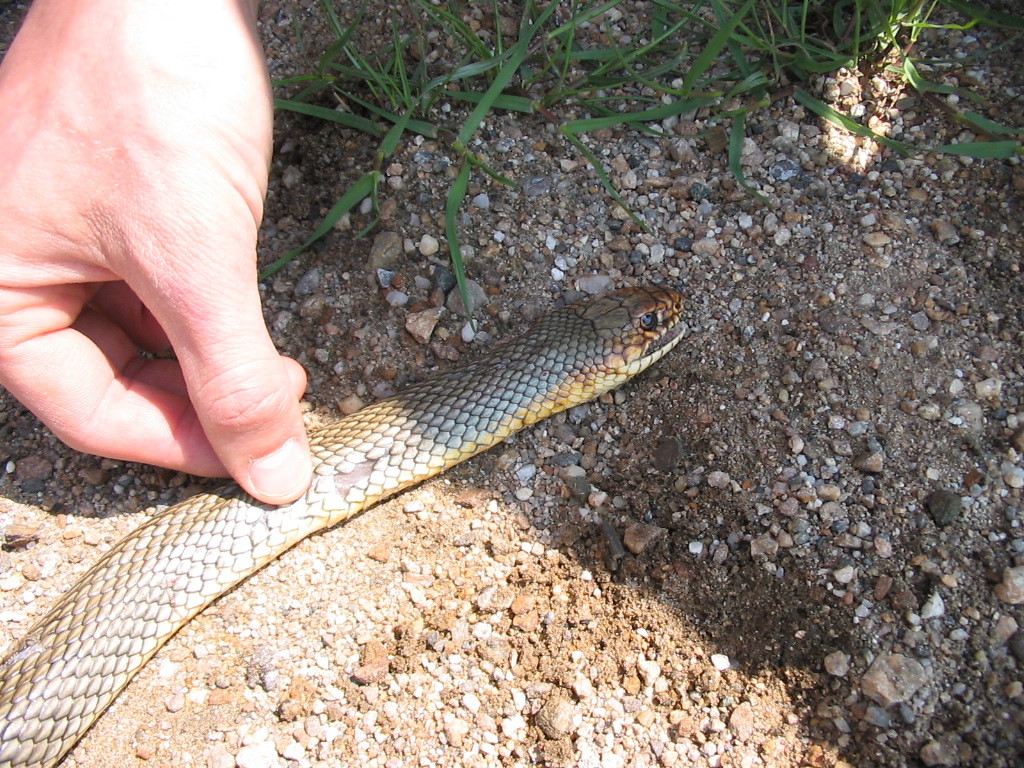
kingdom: Animalia
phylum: Chordata
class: Squamata
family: Colubridae
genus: Dolichophis
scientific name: Dolichophis caspius
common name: Large whip snake
